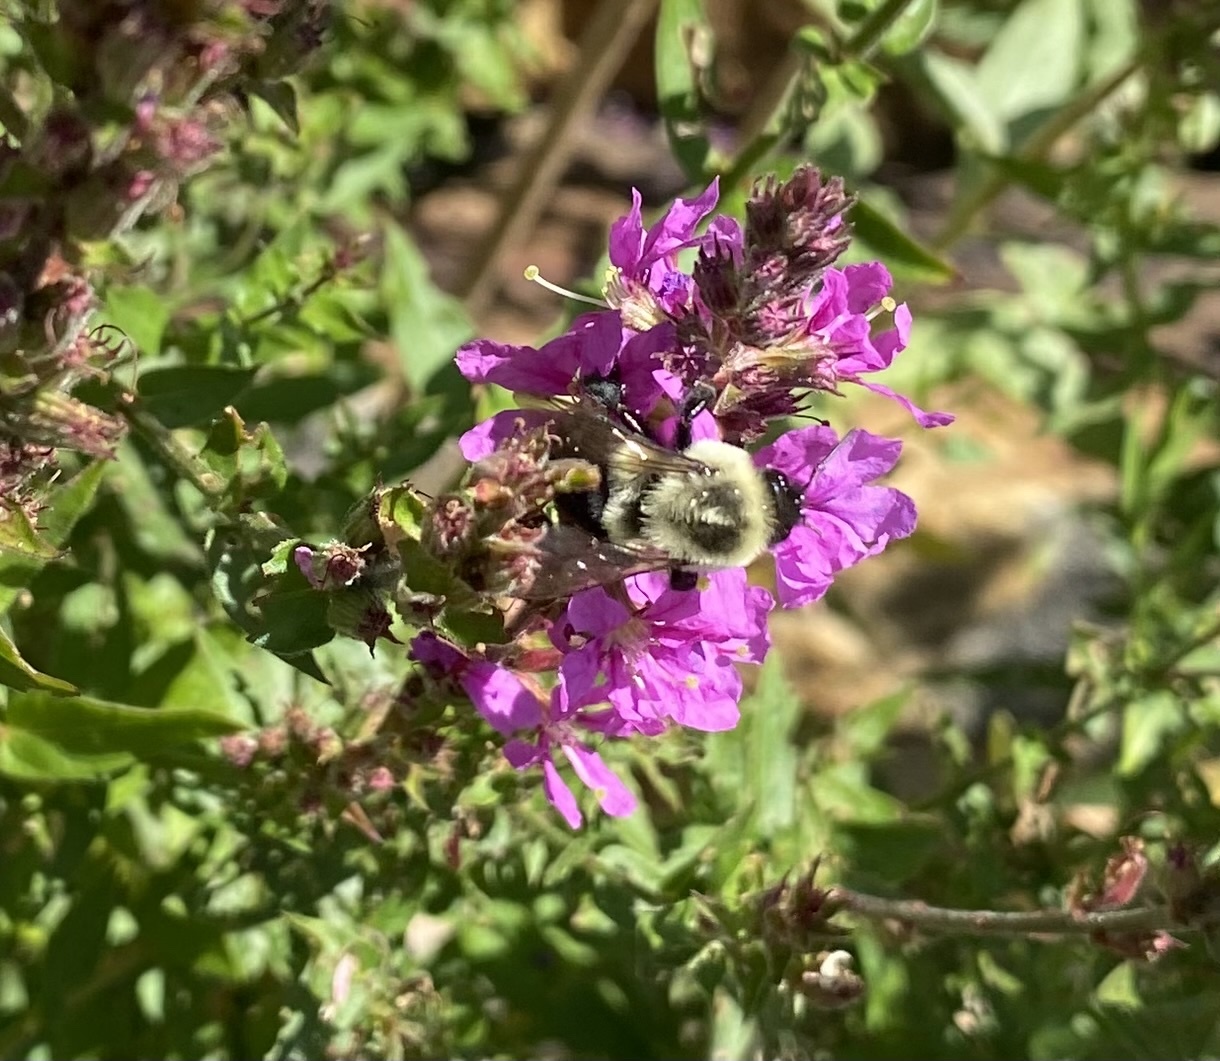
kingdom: Animalia
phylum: Arthropoda
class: Insecta
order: Hymenoptera
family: Apidae
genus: Bombus
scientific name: Bombus impatiens
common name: Common eastern bumble bee
